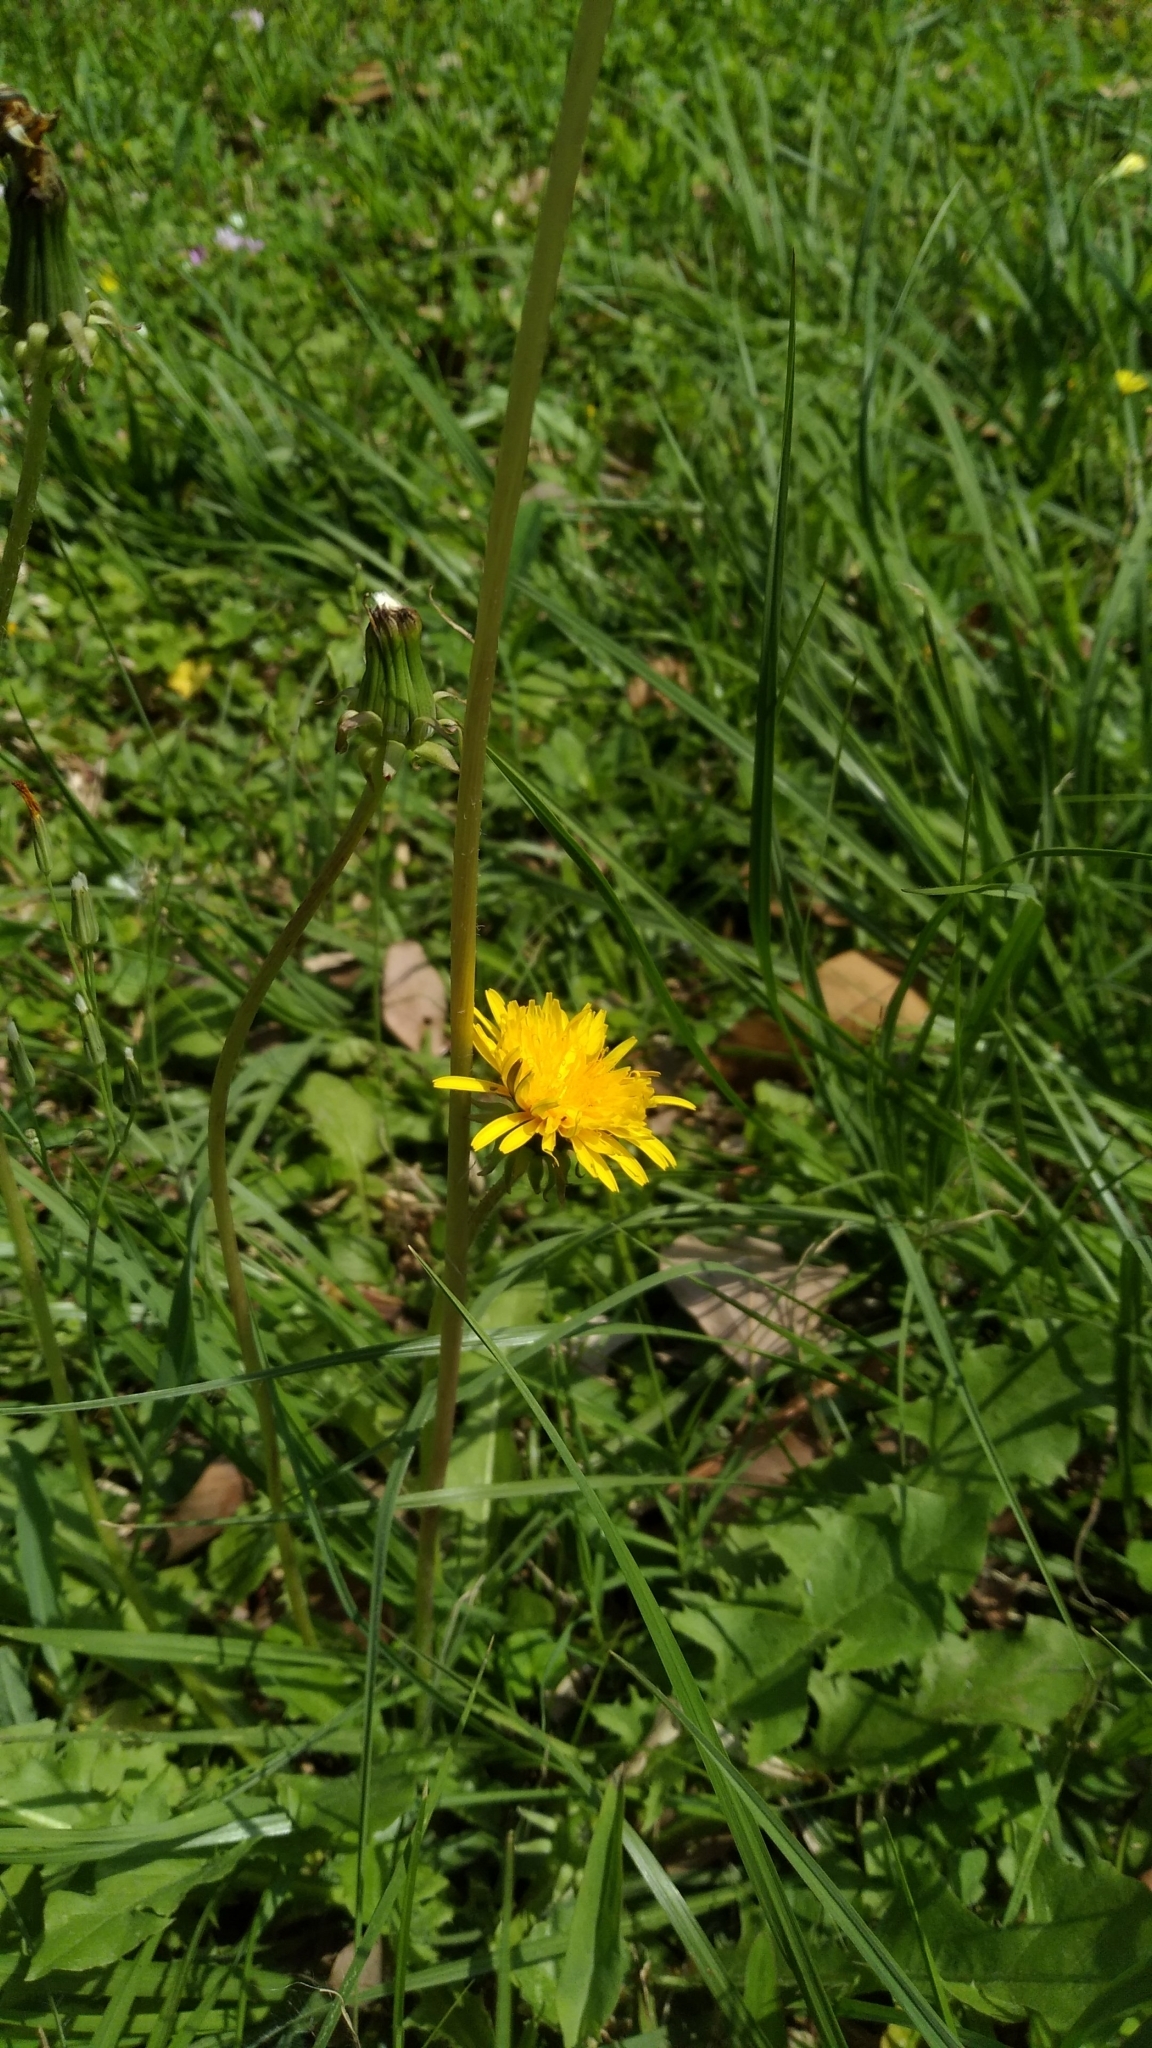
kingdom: Plantae
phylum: Tracheophyta
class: Magnoliopsida
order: Asterales
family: Asteraceae
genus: Taraxacum
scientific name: Taraxacum officinale
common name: Common dandelion
